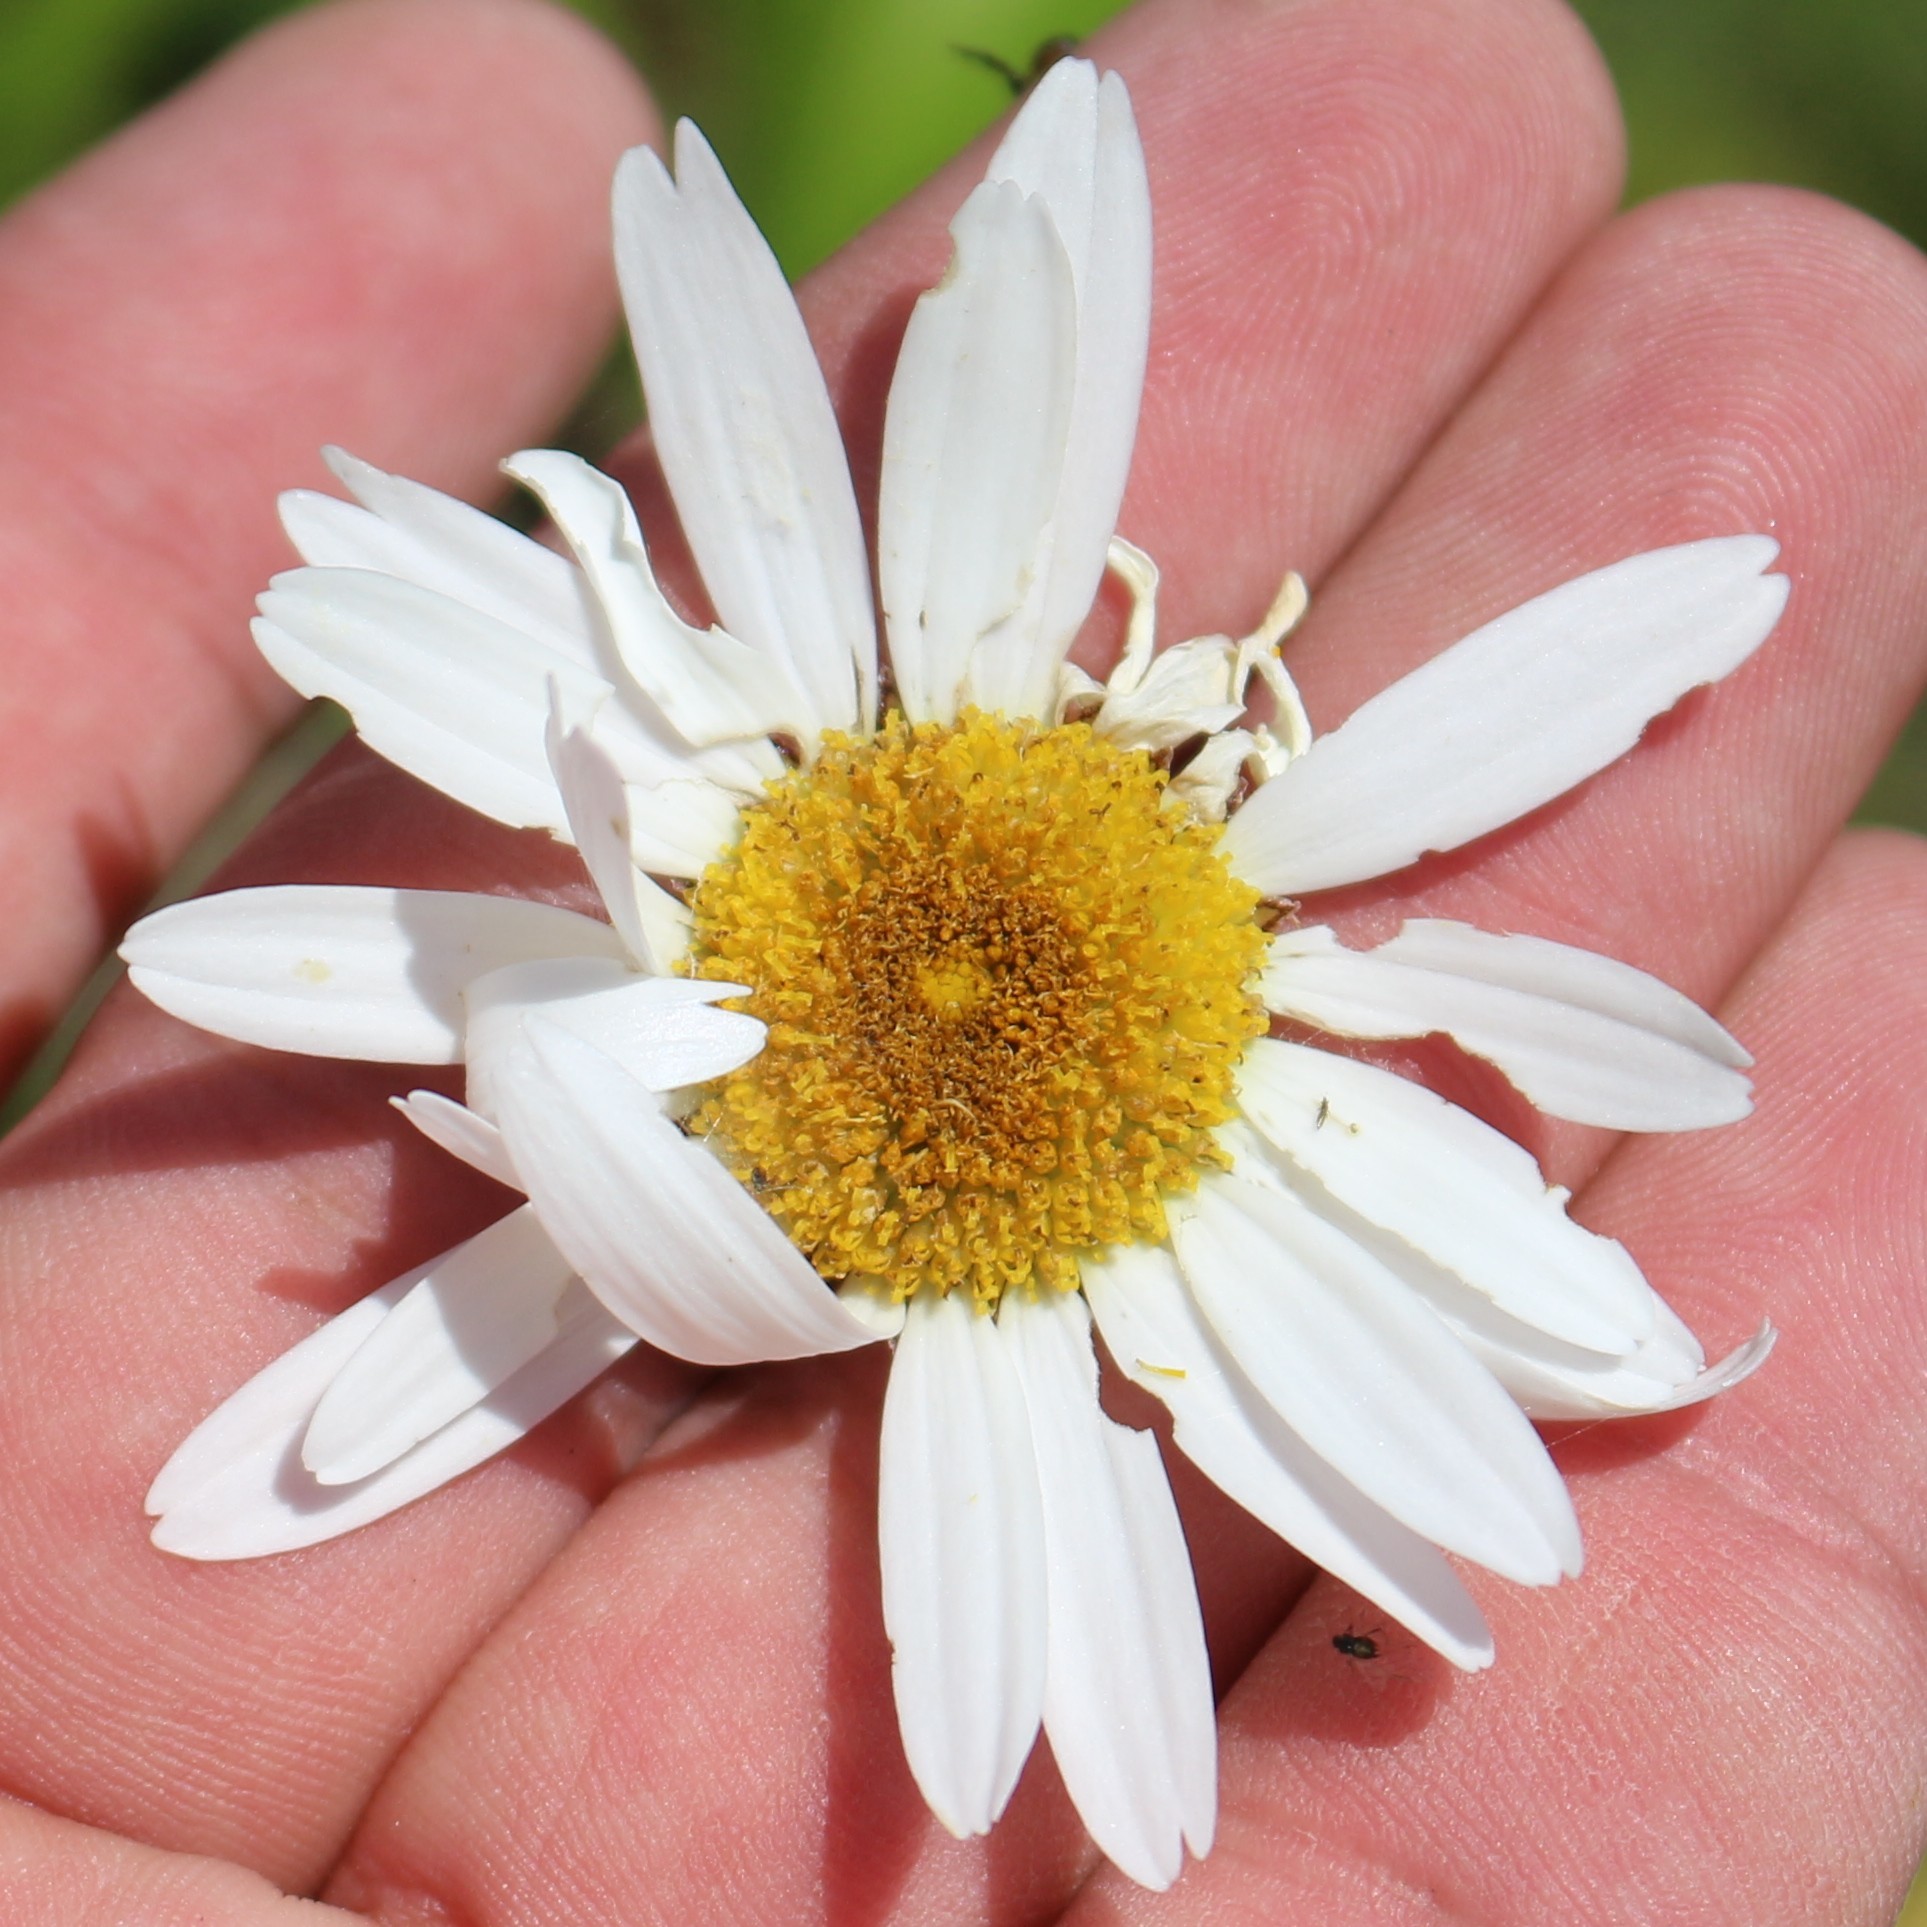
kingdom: Plantae
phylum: Tracheophyta
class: Magnoliopsida
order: Asterales
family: Asteraceae
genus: Leucanthemum
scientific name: Leucanthemum vulgare
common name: Oxeye daisy
